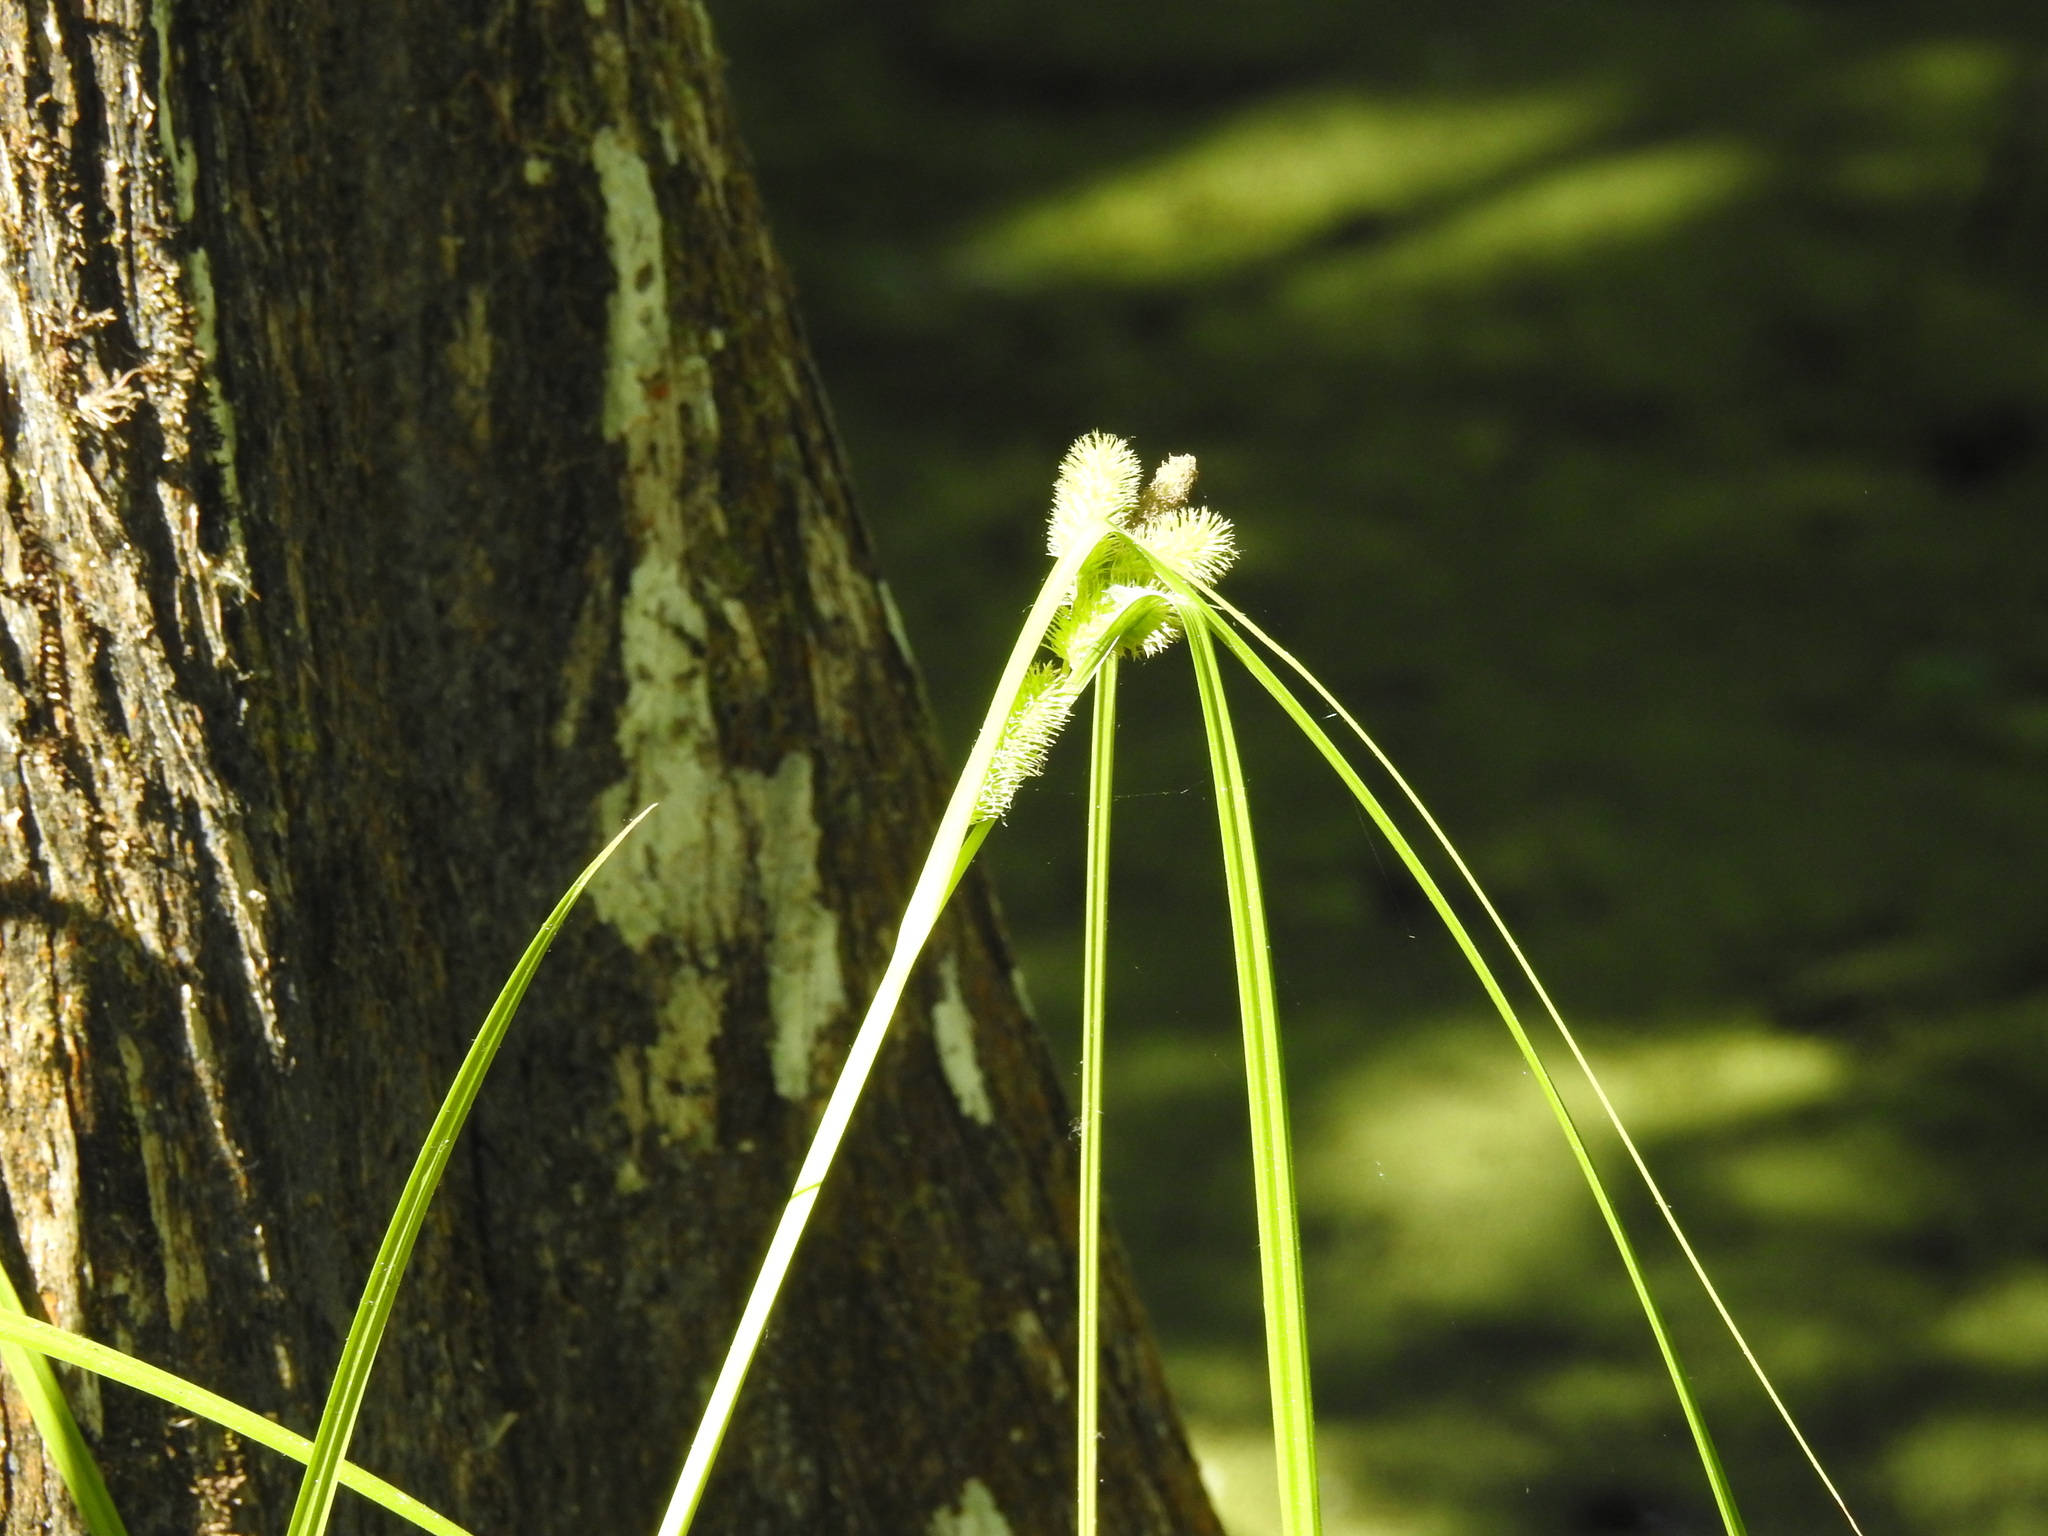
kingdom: Plantae
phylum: Tracheophyta
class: Liliopsida
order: Poales
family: Cyperaceae
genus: Carex
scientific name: Carex comosa
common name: Bristly sedge
